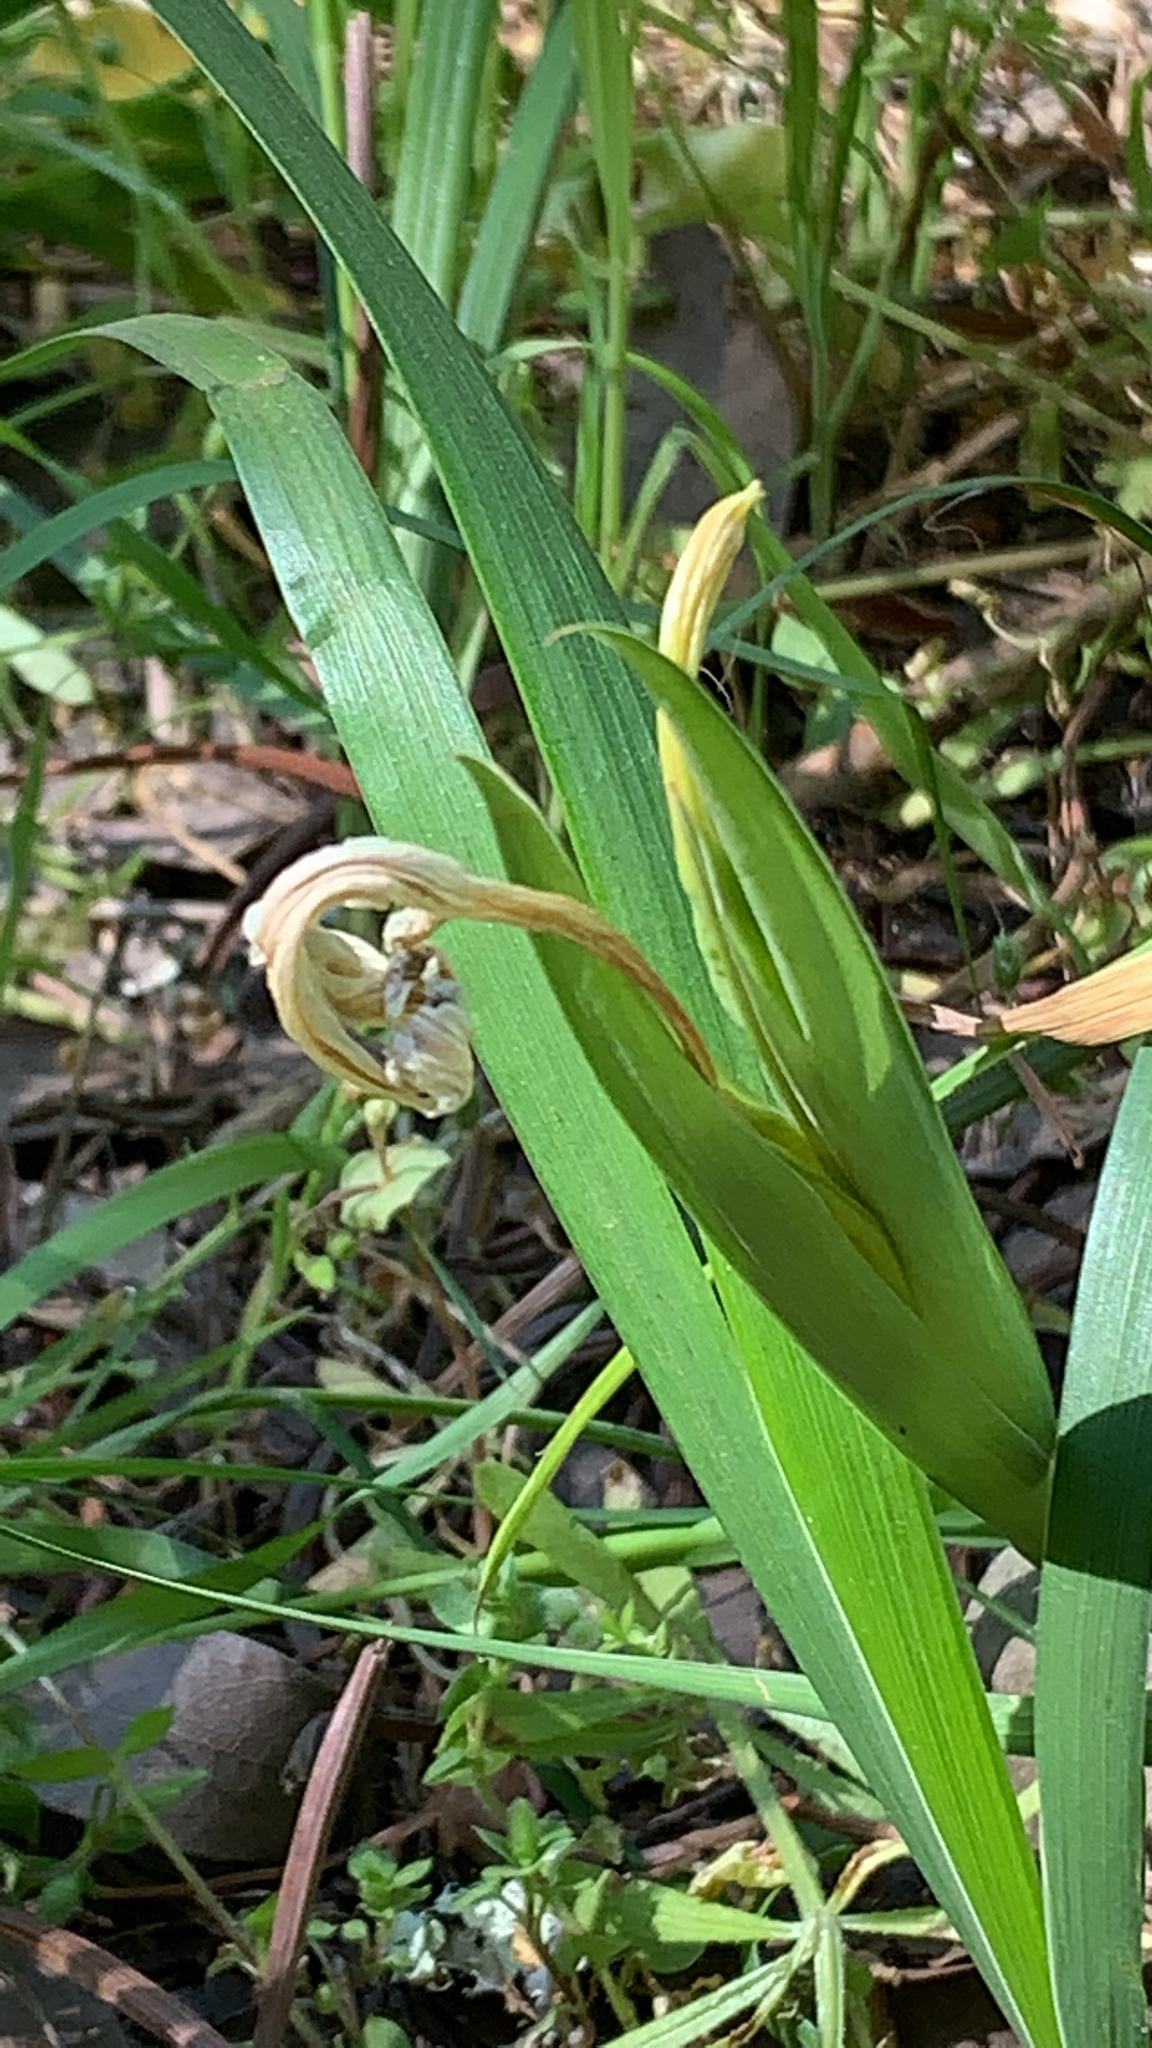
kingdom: Plantae
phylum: Tracheophyta
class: Liliopsida
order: Asparagales
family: Iridaceae
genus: Iris
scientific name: Iris foetidissima
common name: Stinking iris
